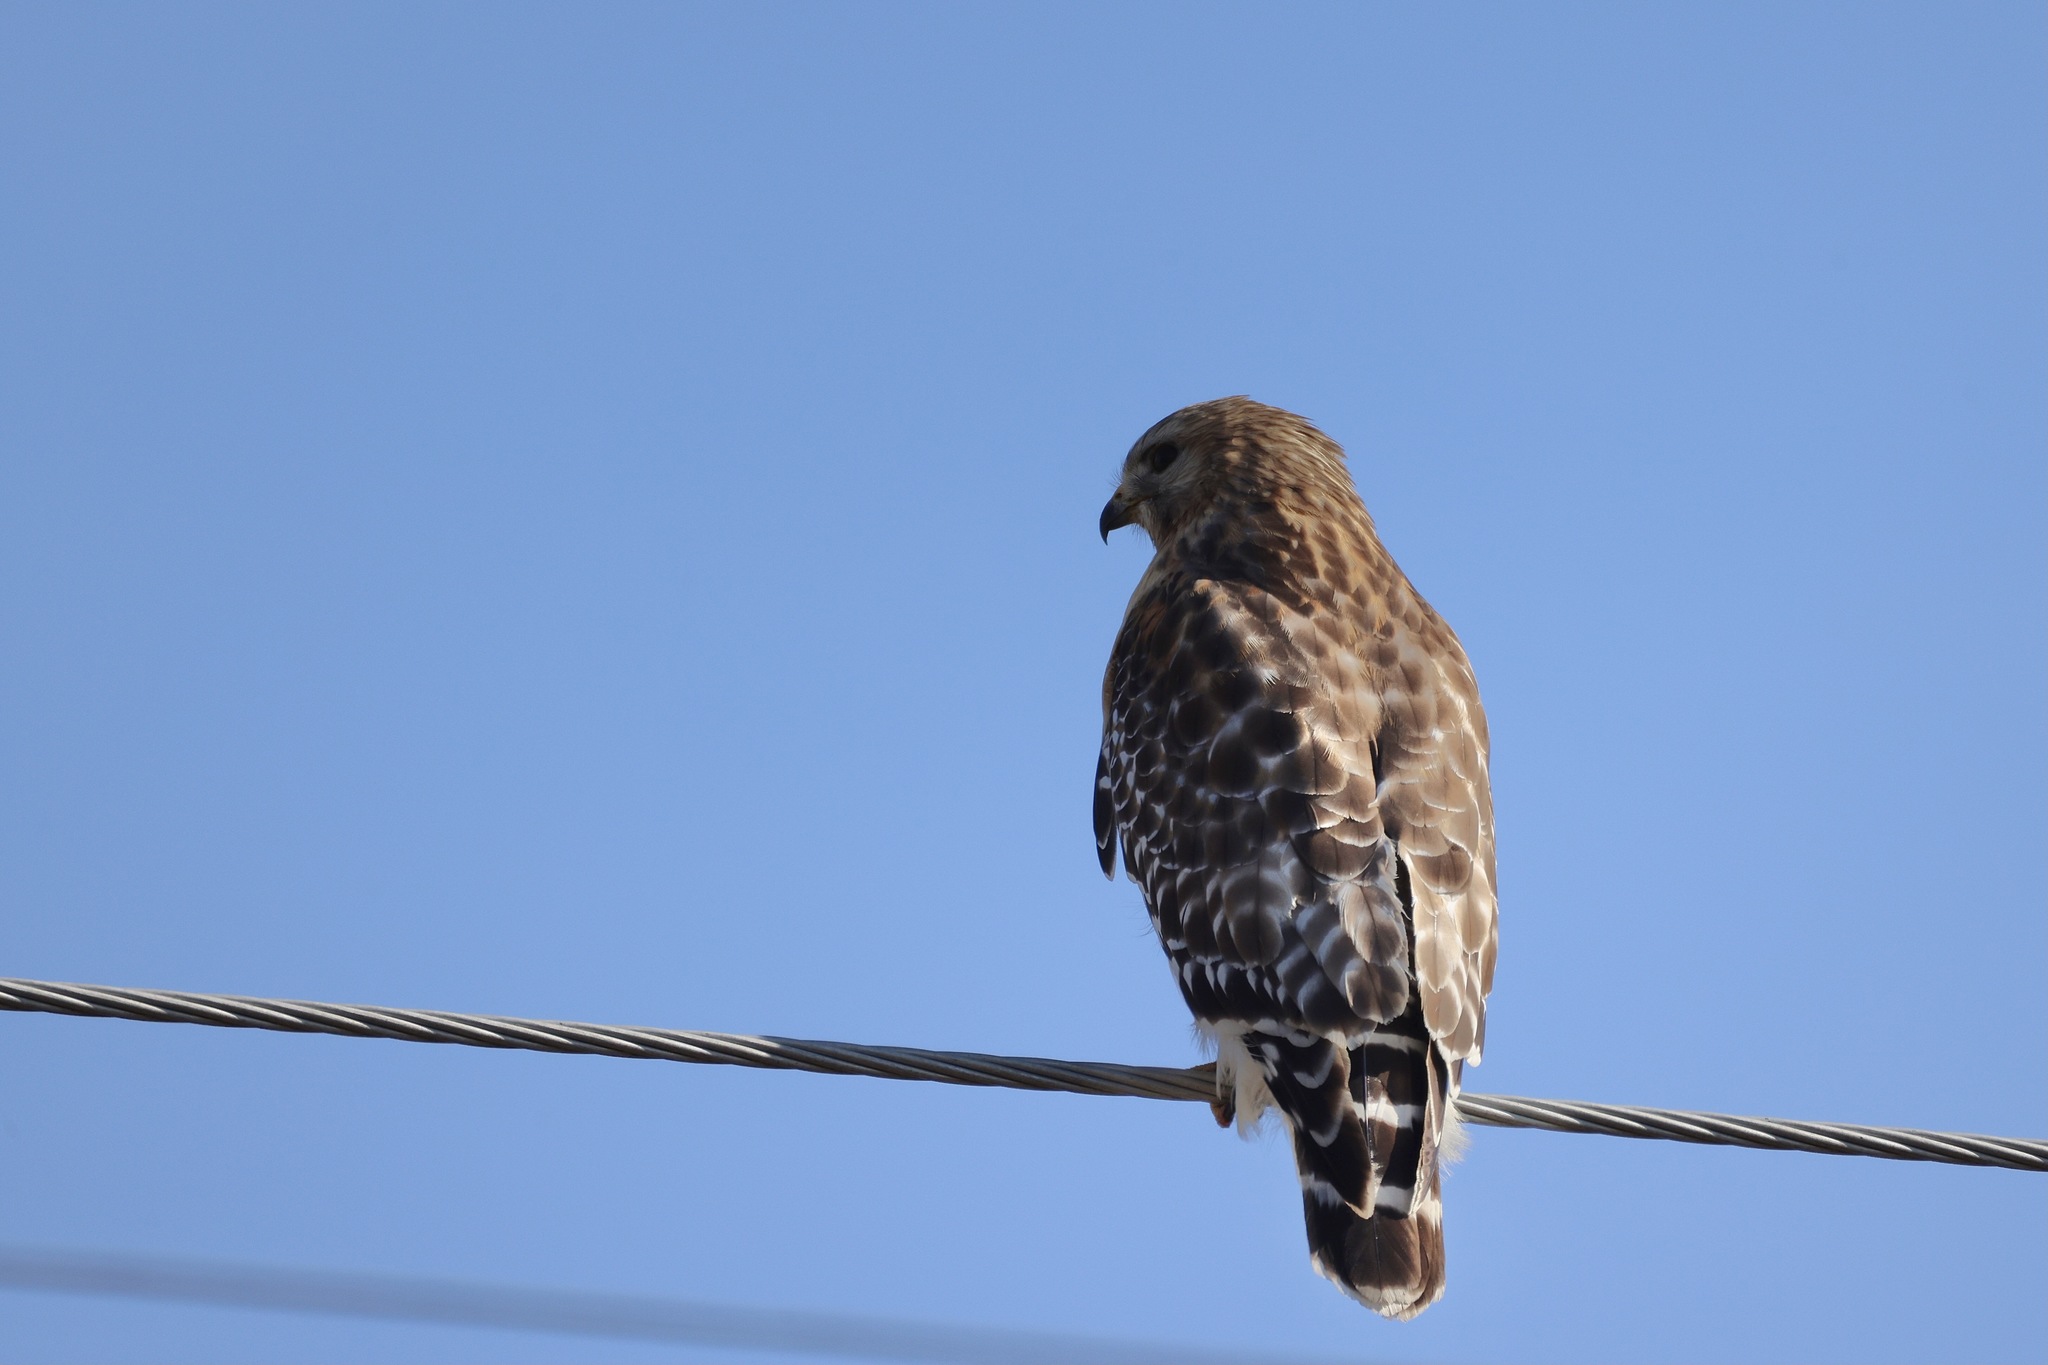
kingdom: Animalia
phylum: Chordata
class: Aves
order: Accipitriformes
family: Accipitridae
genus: Buteo
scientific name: Buteo lineatus
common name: Red-shouldered hawk
